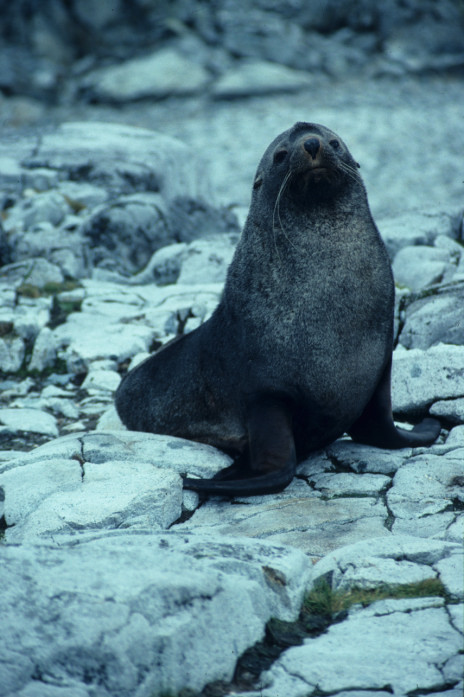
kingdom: Animalia
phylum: Chordata
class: Mammalia
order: Carnivora
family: Otariidae
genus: Arctocephalus
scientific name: Arctocephalus gazella
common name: Antarctic fur seal
